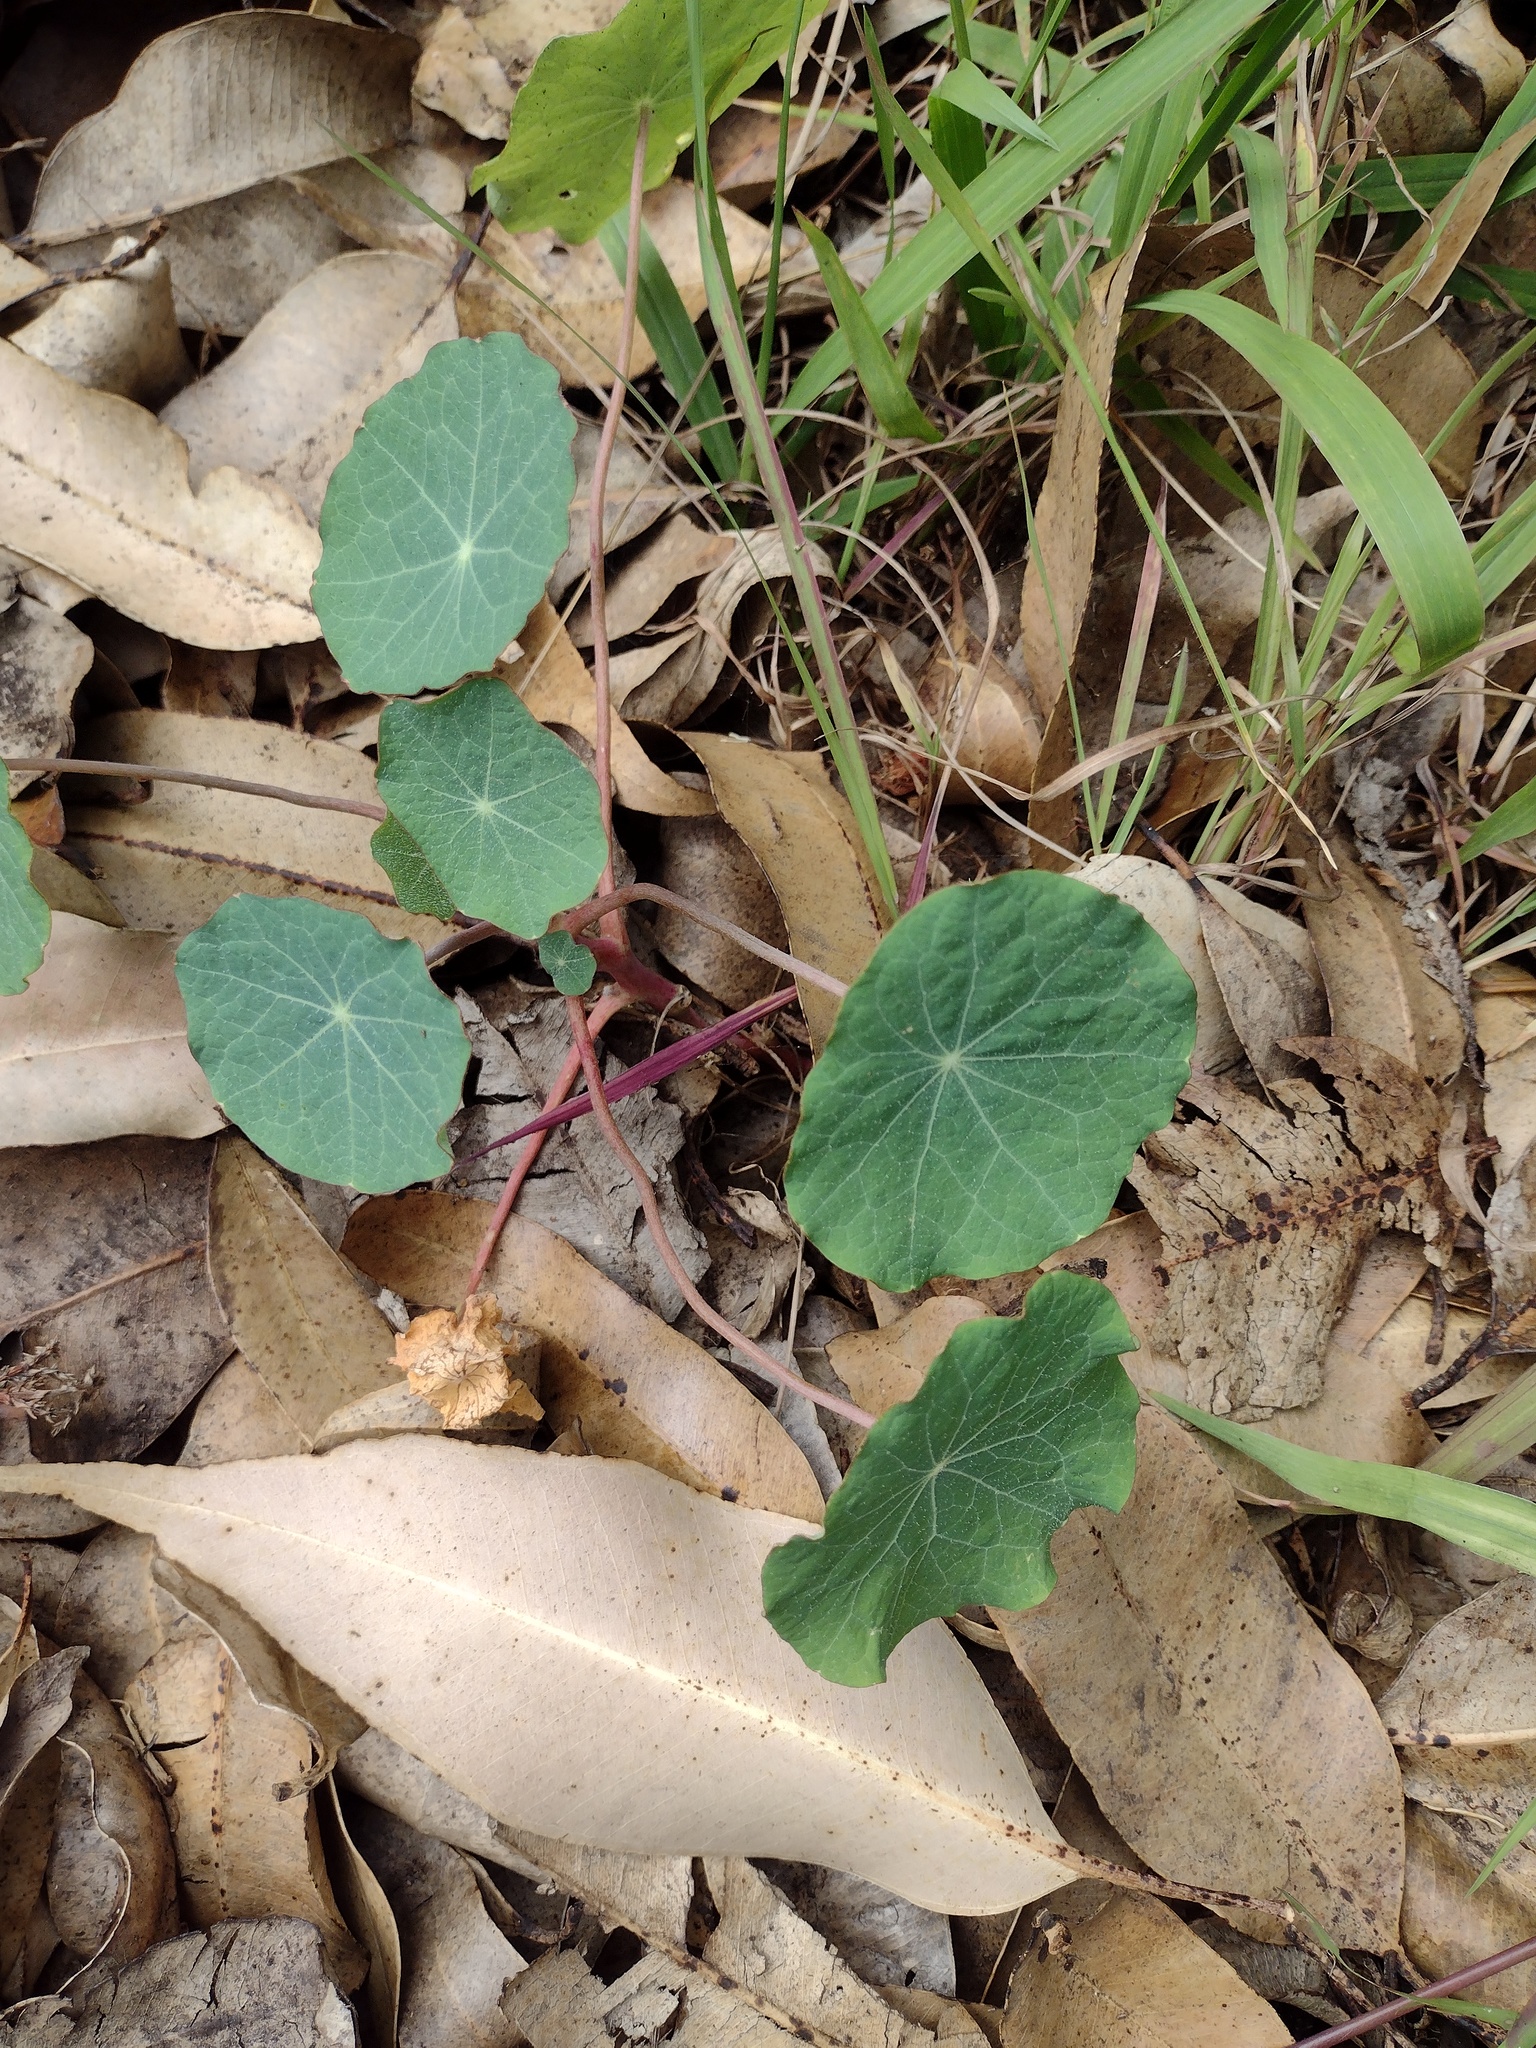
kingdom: Plantae
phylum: Tracheophyta
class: Magnoliopsida
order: Brassicales
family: Tropaeolaceae
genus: Tropaeolum
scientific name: Tropaeolum majus
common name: Nasturtium
